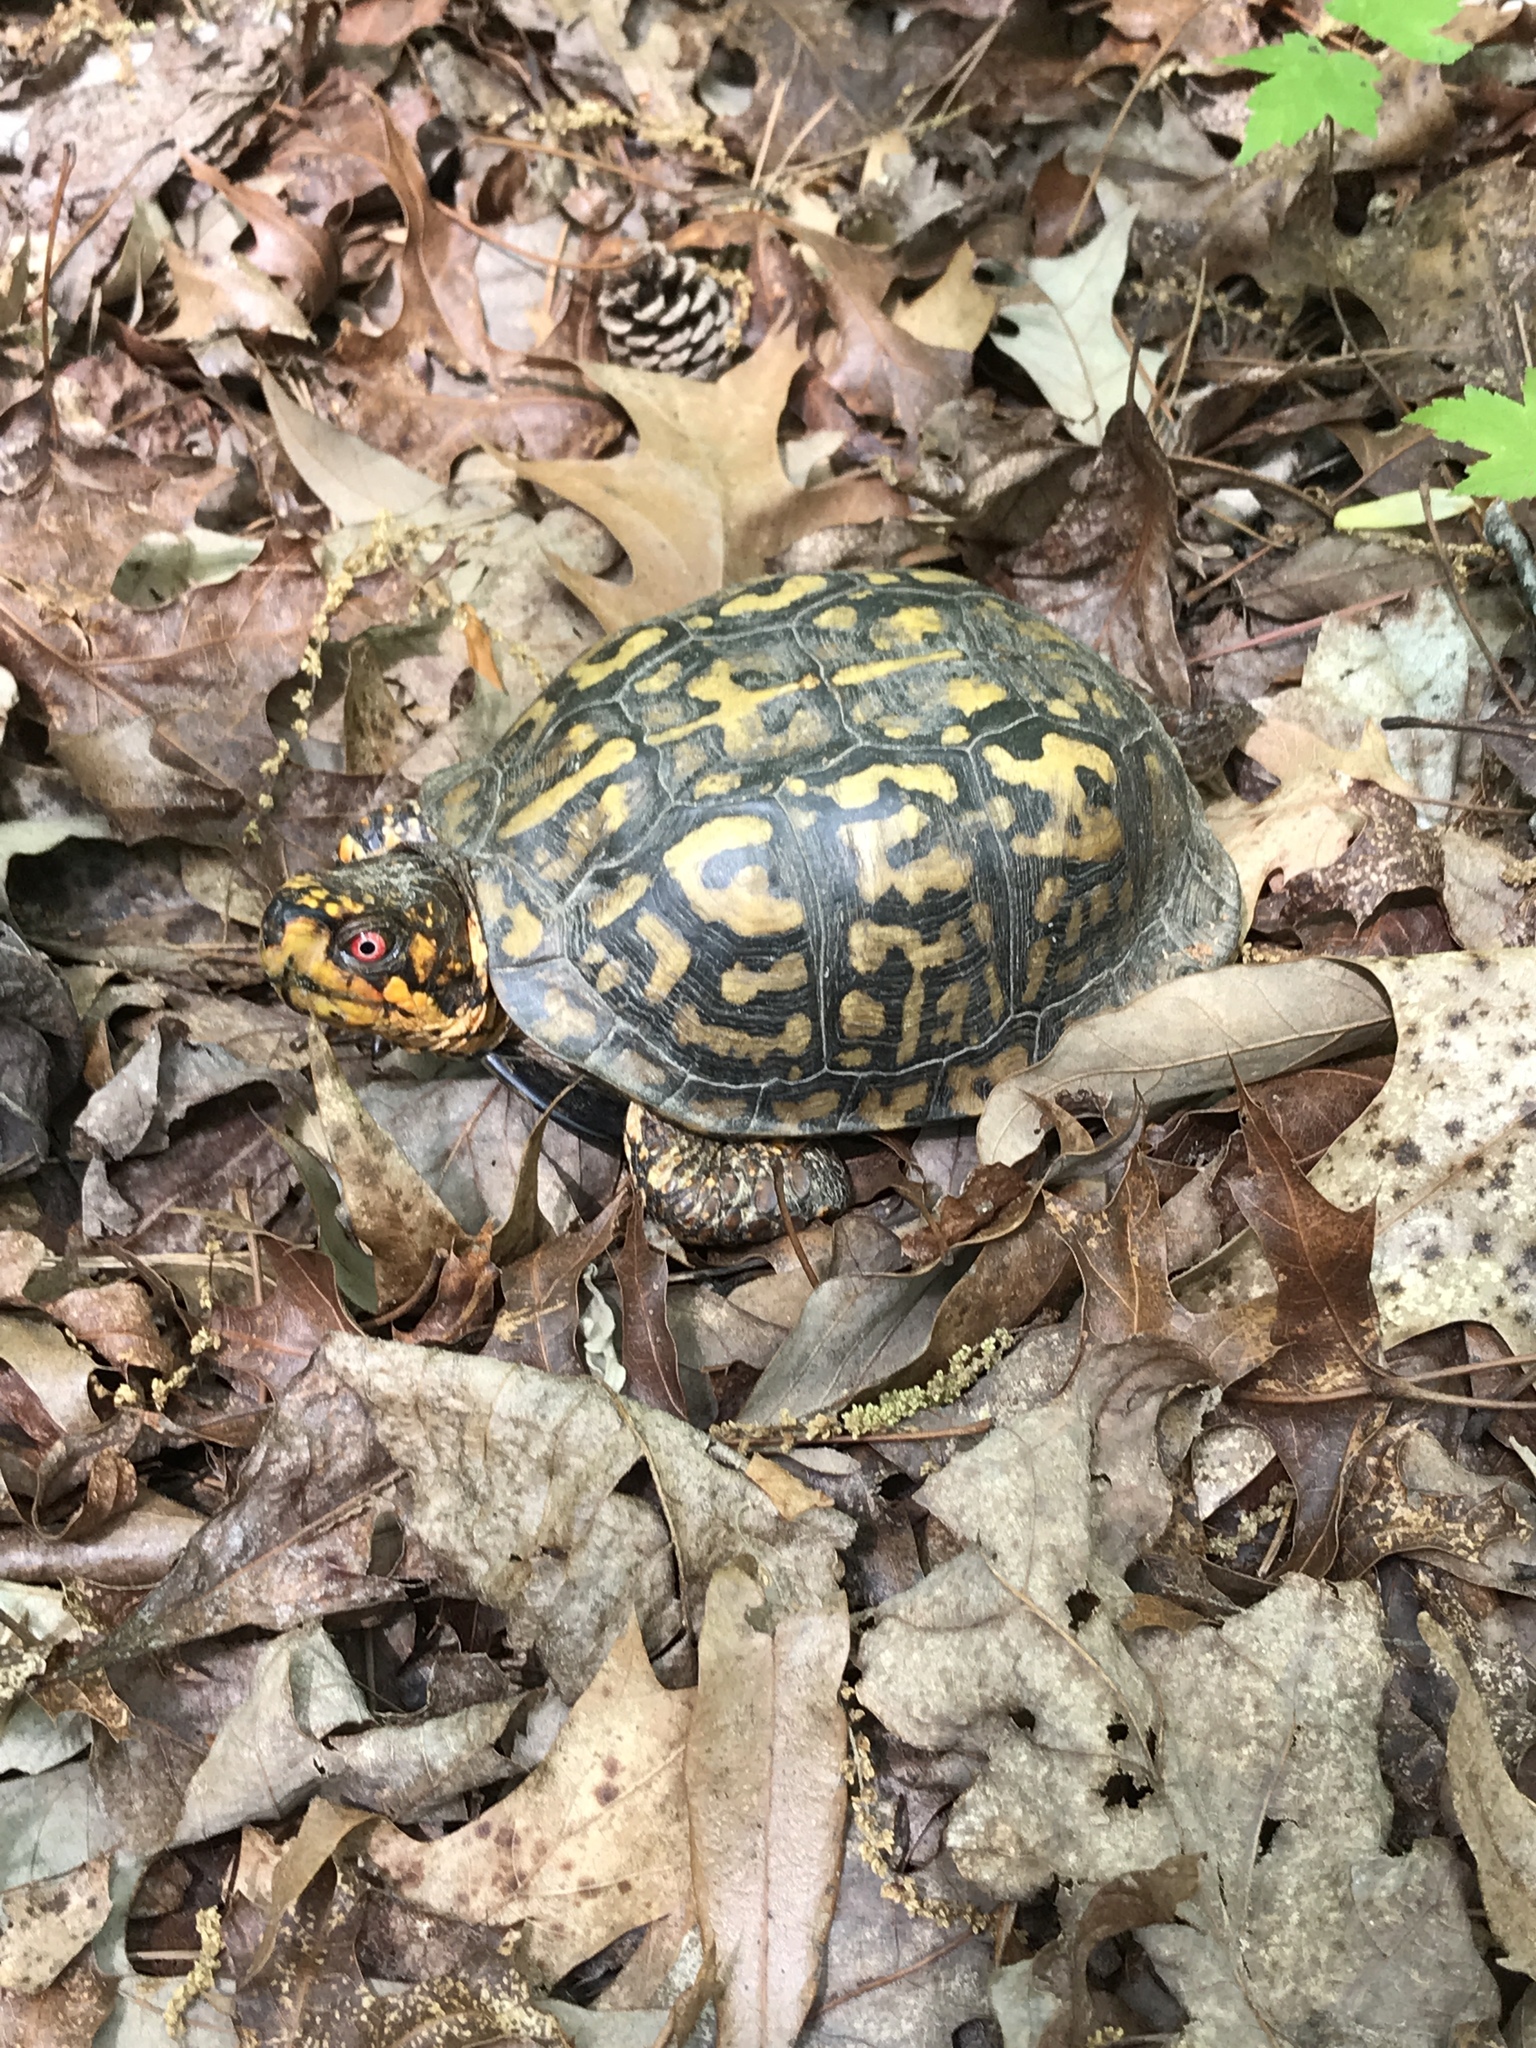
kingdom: Animalia
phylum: Chordata
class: Testudines
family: Emydidae
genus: Terrapene
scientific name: Terrapene carolina
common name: Common box turtle
